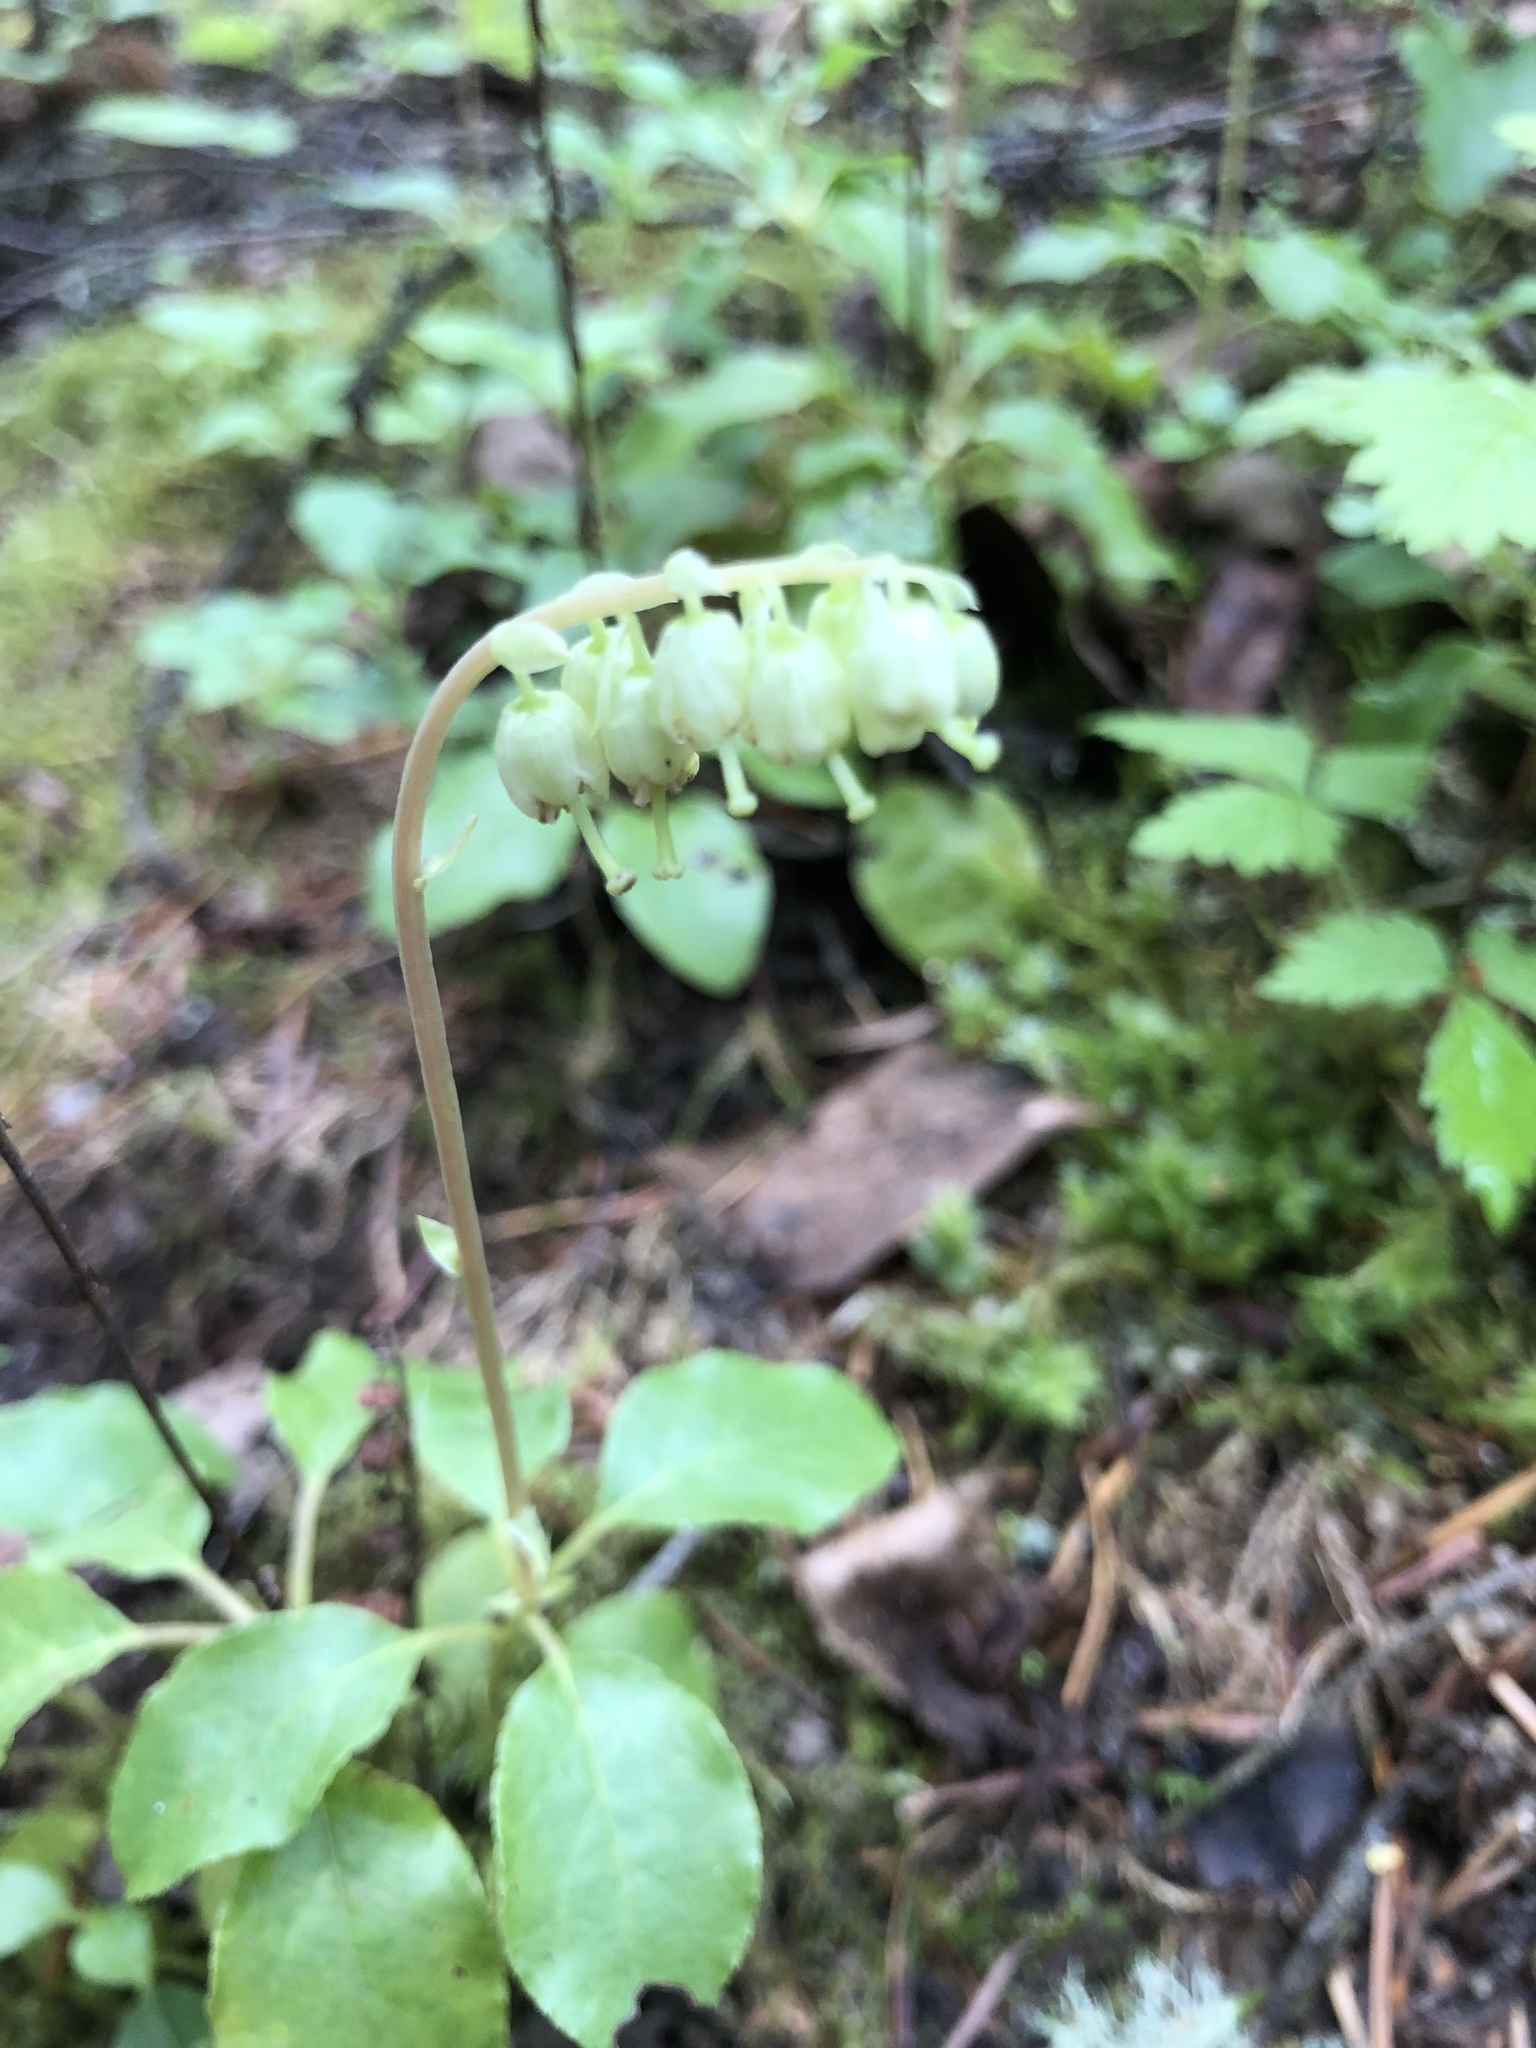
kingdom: Plantae
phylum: Tracheophyta
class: Magnoliopsida
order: Ericales
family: Ericaceae
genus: Orthilia
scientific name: Orthilia secunda
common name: One-sided orthilia
